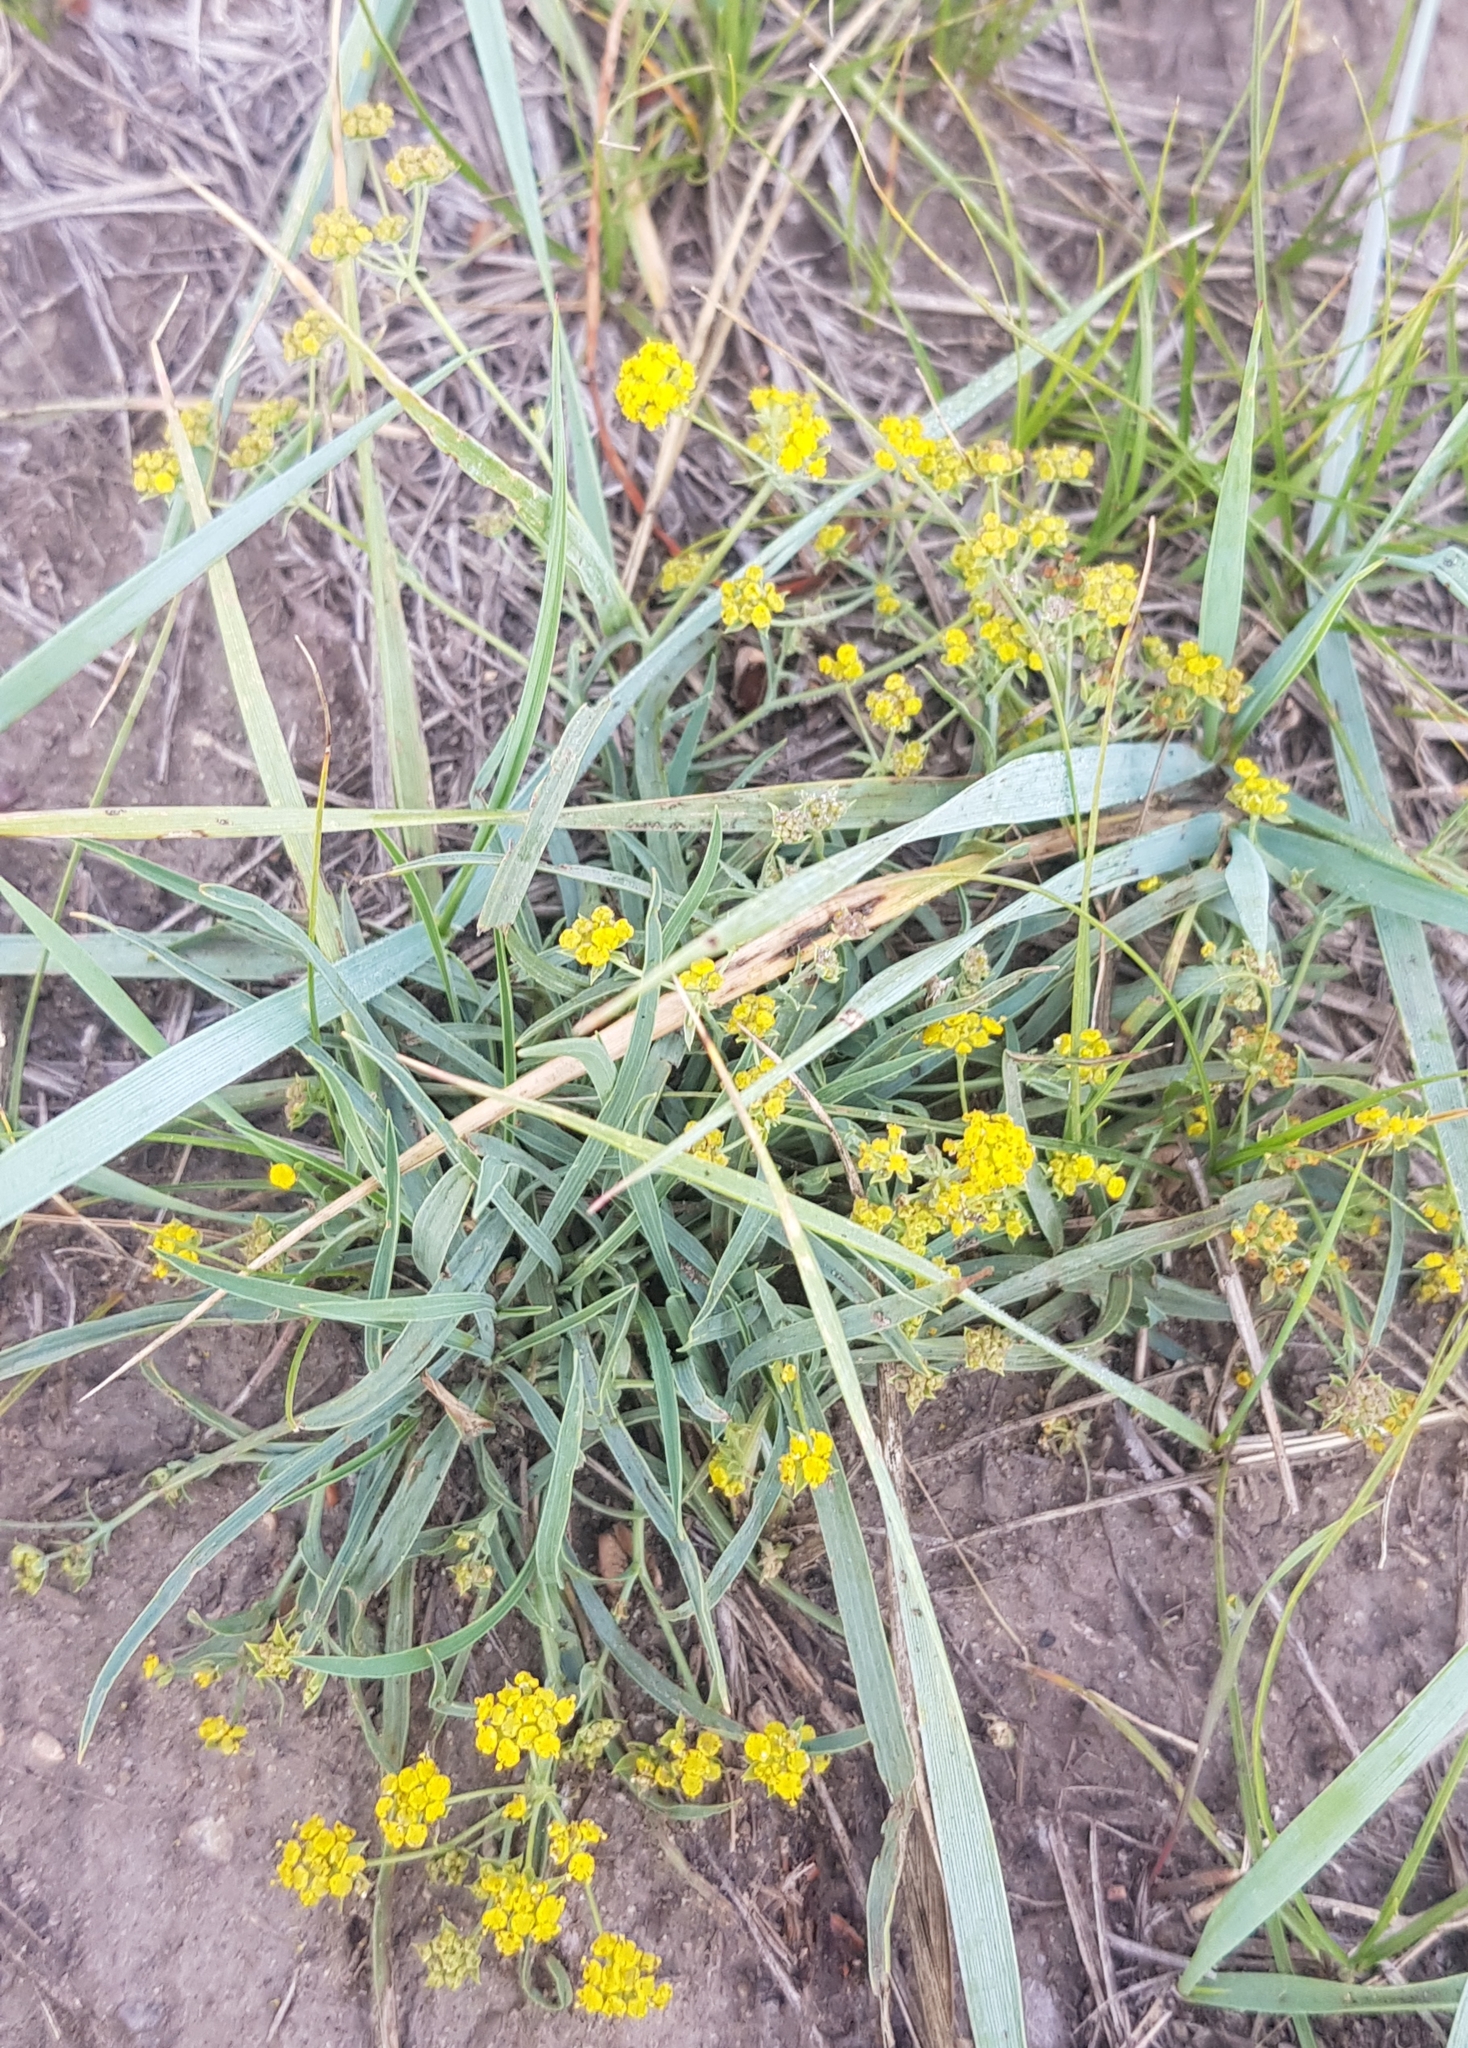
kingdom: Plantae
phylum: Tracheophyta
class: Magnoliopsida
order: Apiales
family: Apiaceae
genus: Bupleurum
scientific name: Bupleurum scorzonerifolium
